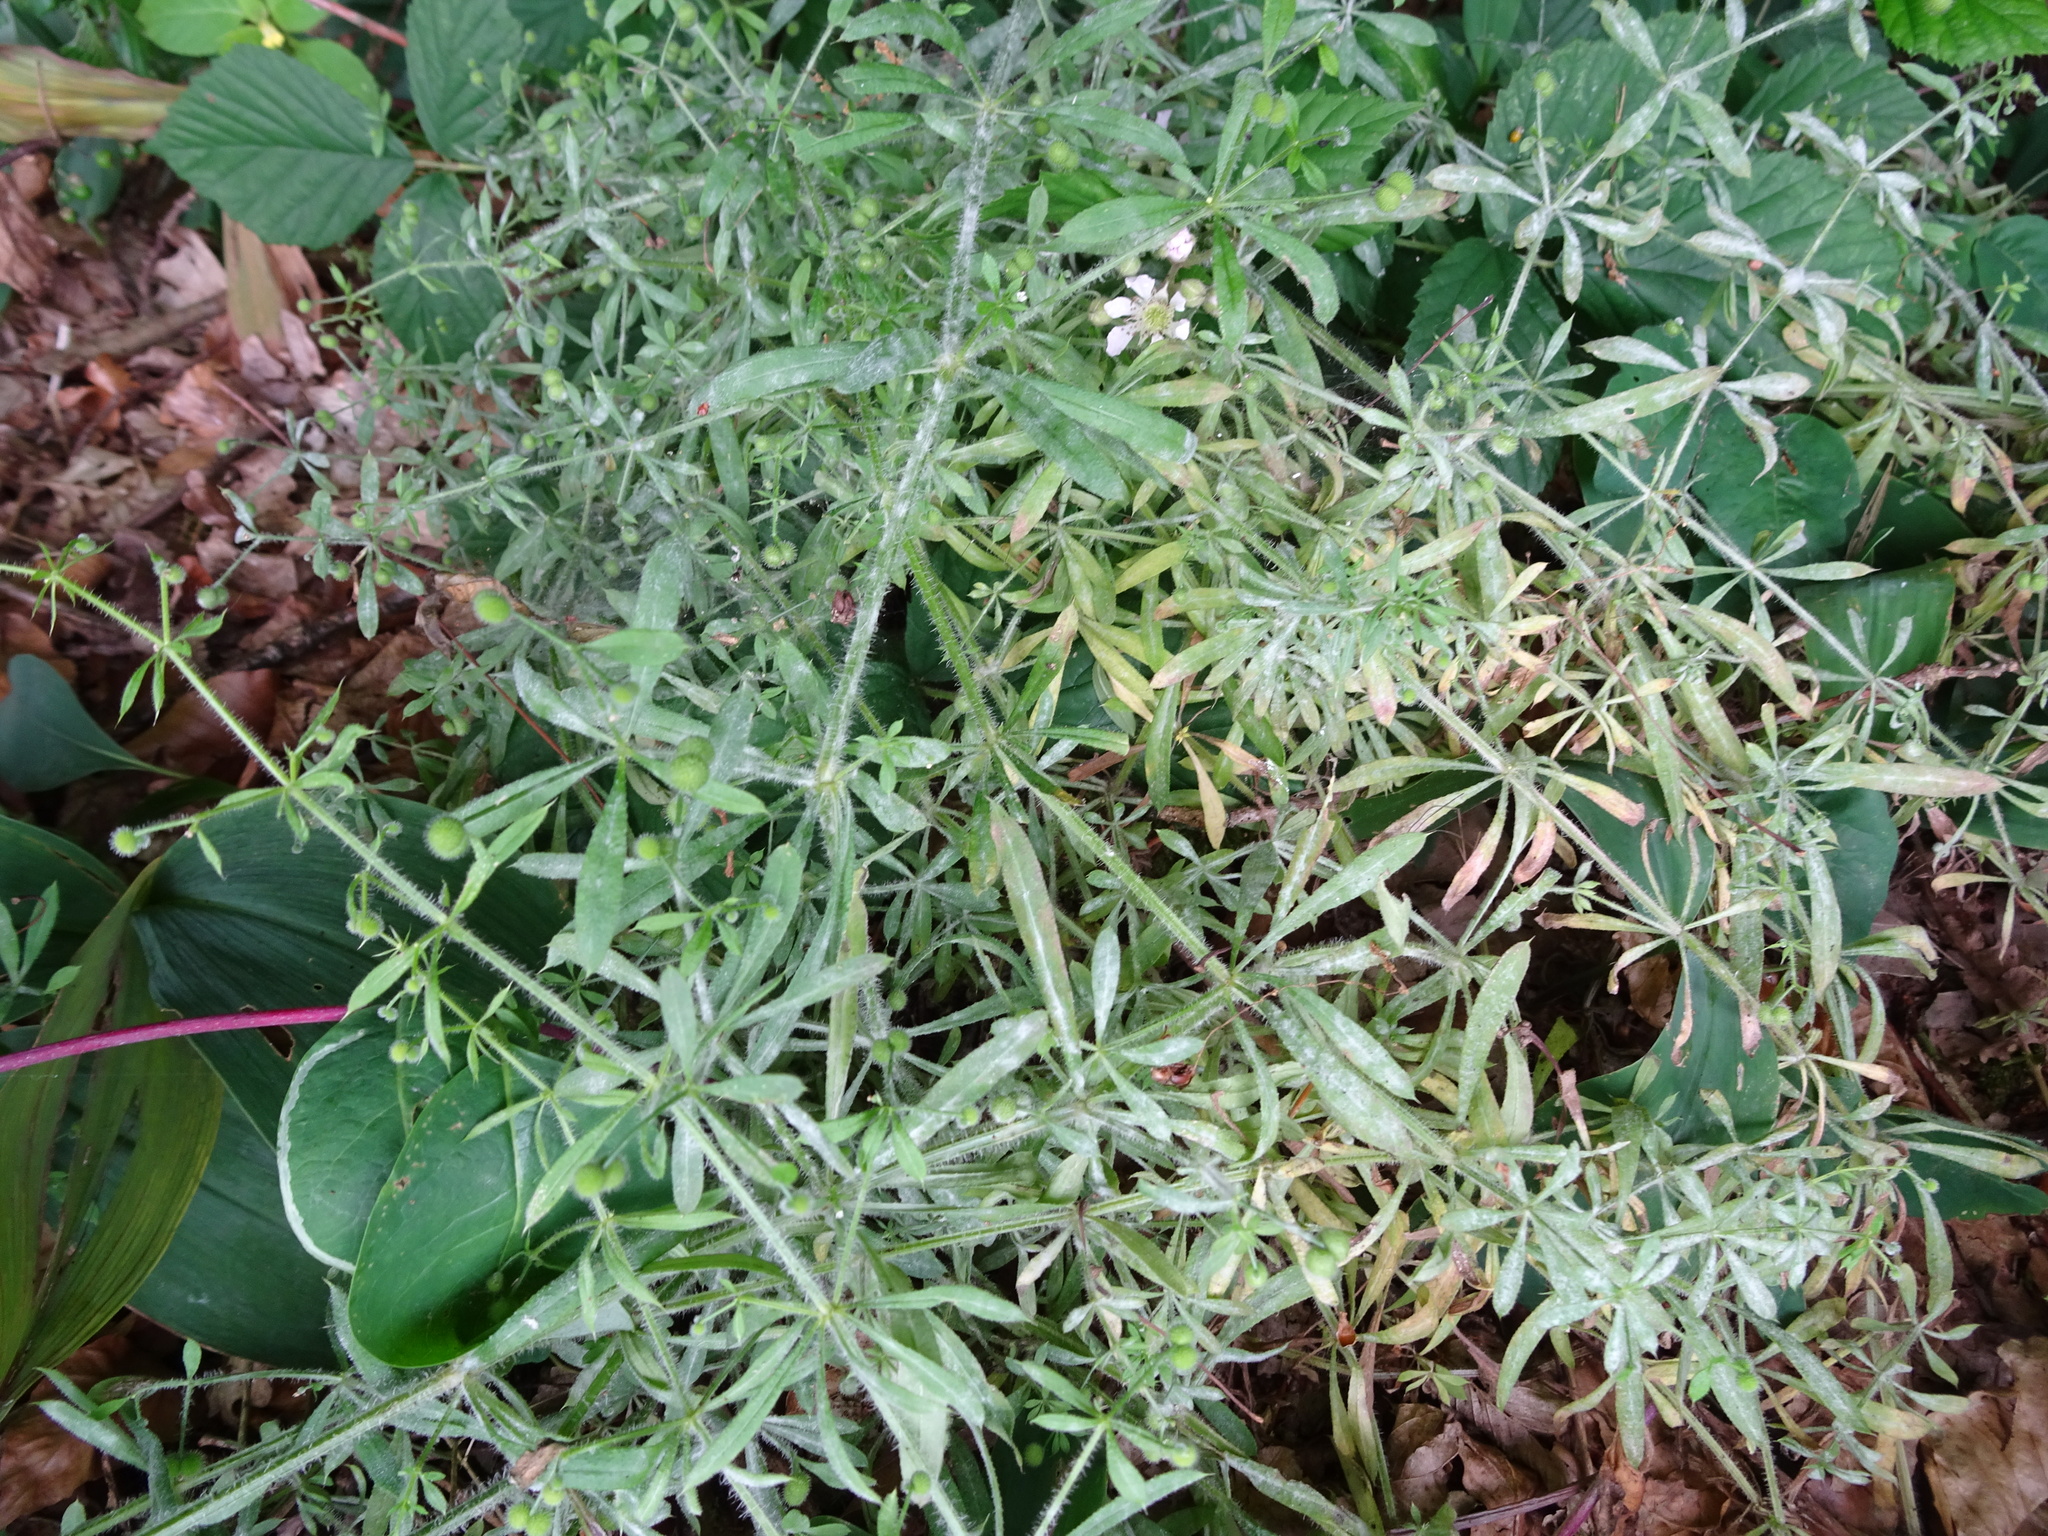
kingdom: Plantae
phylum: Tracheophyta
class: Magnoliopsida
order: Gentianales
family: Rubiaceae
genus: Galium
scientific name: Galium aparine
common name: Cleavers
